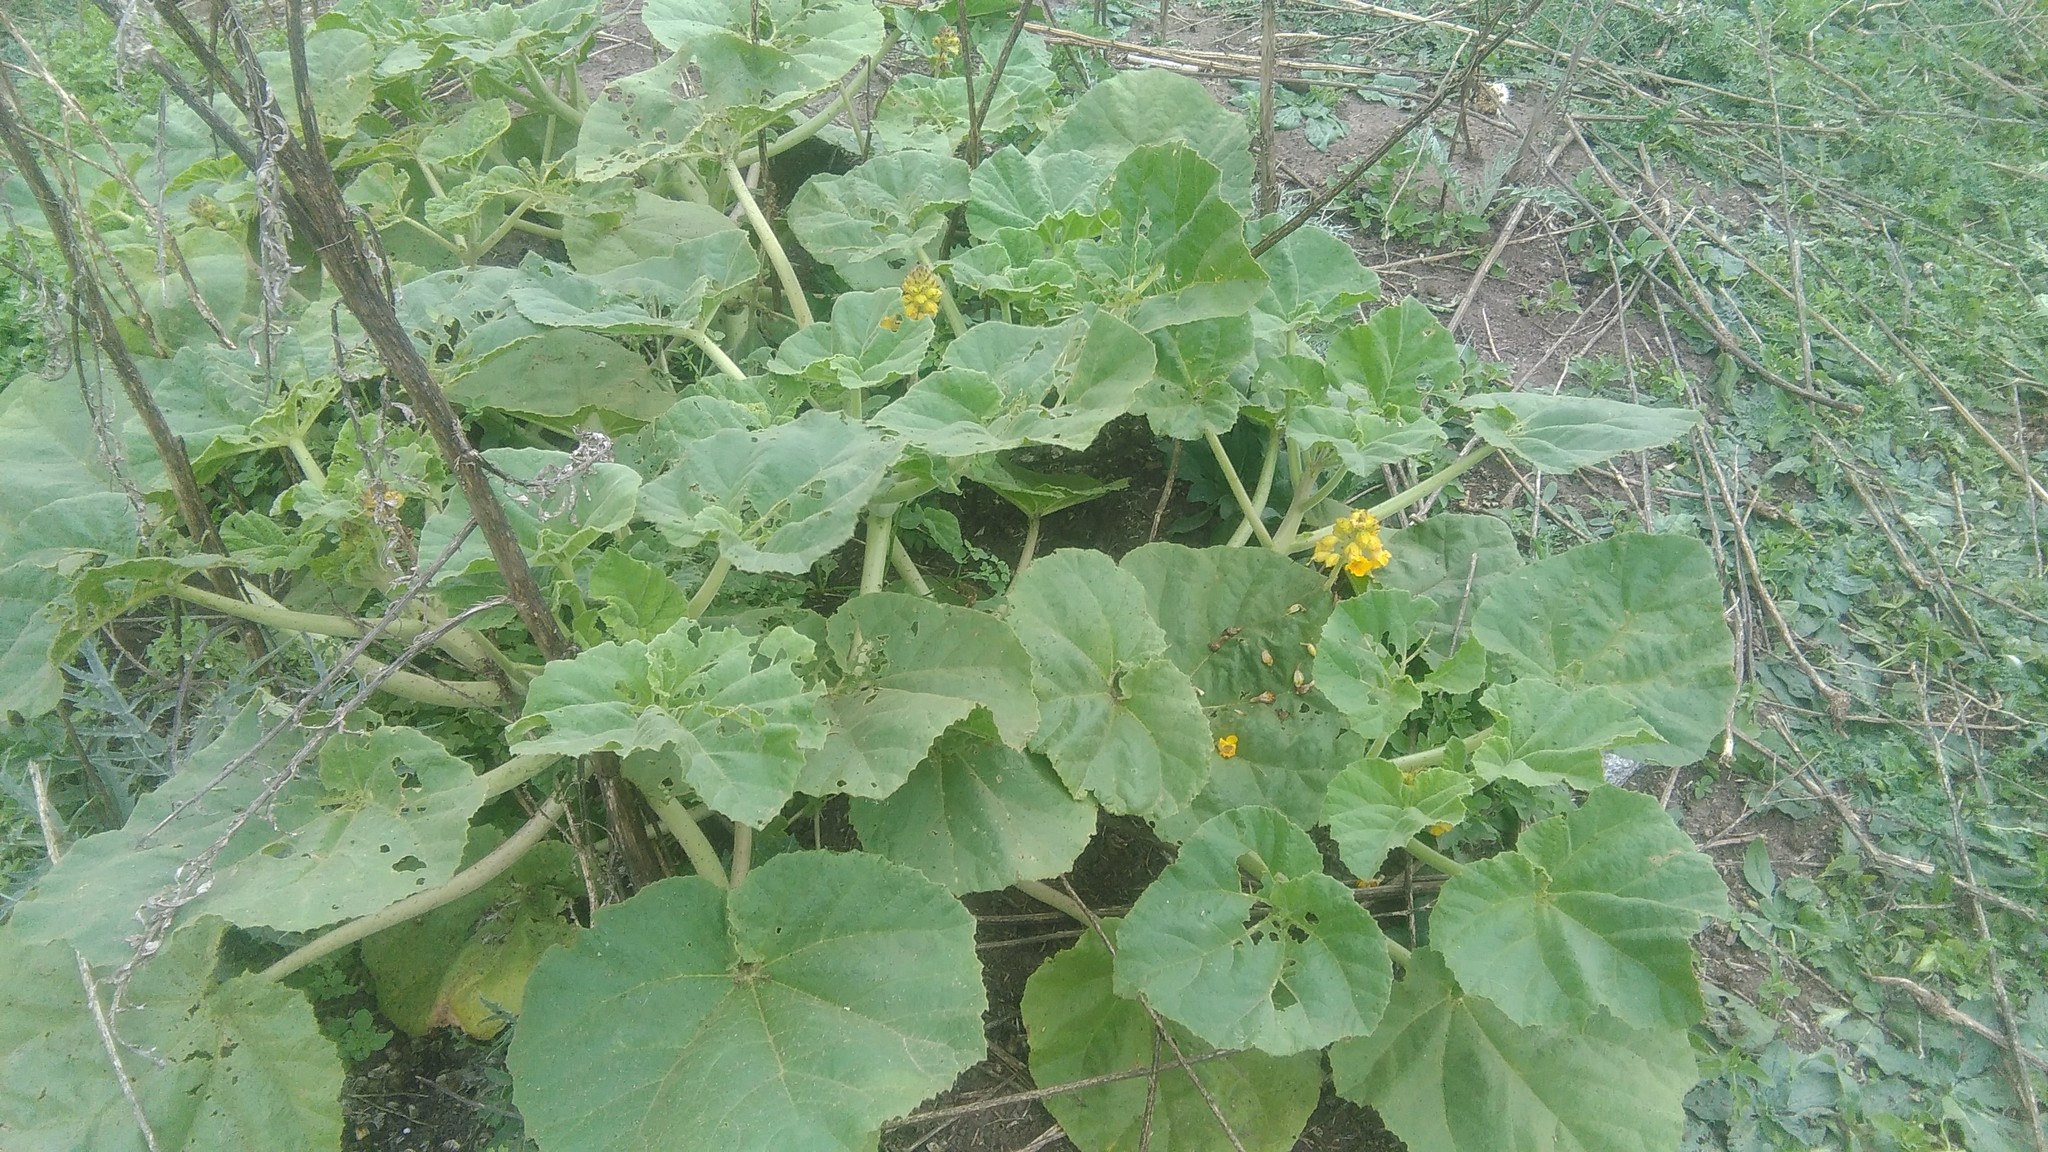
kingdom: Plantae
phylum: Tracheophyta
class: Magnoliopsida
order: Lamiales
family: Martyniaceae
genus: Ibicella
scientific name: Ibicella lutea
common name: Yellow unicorn-plant
